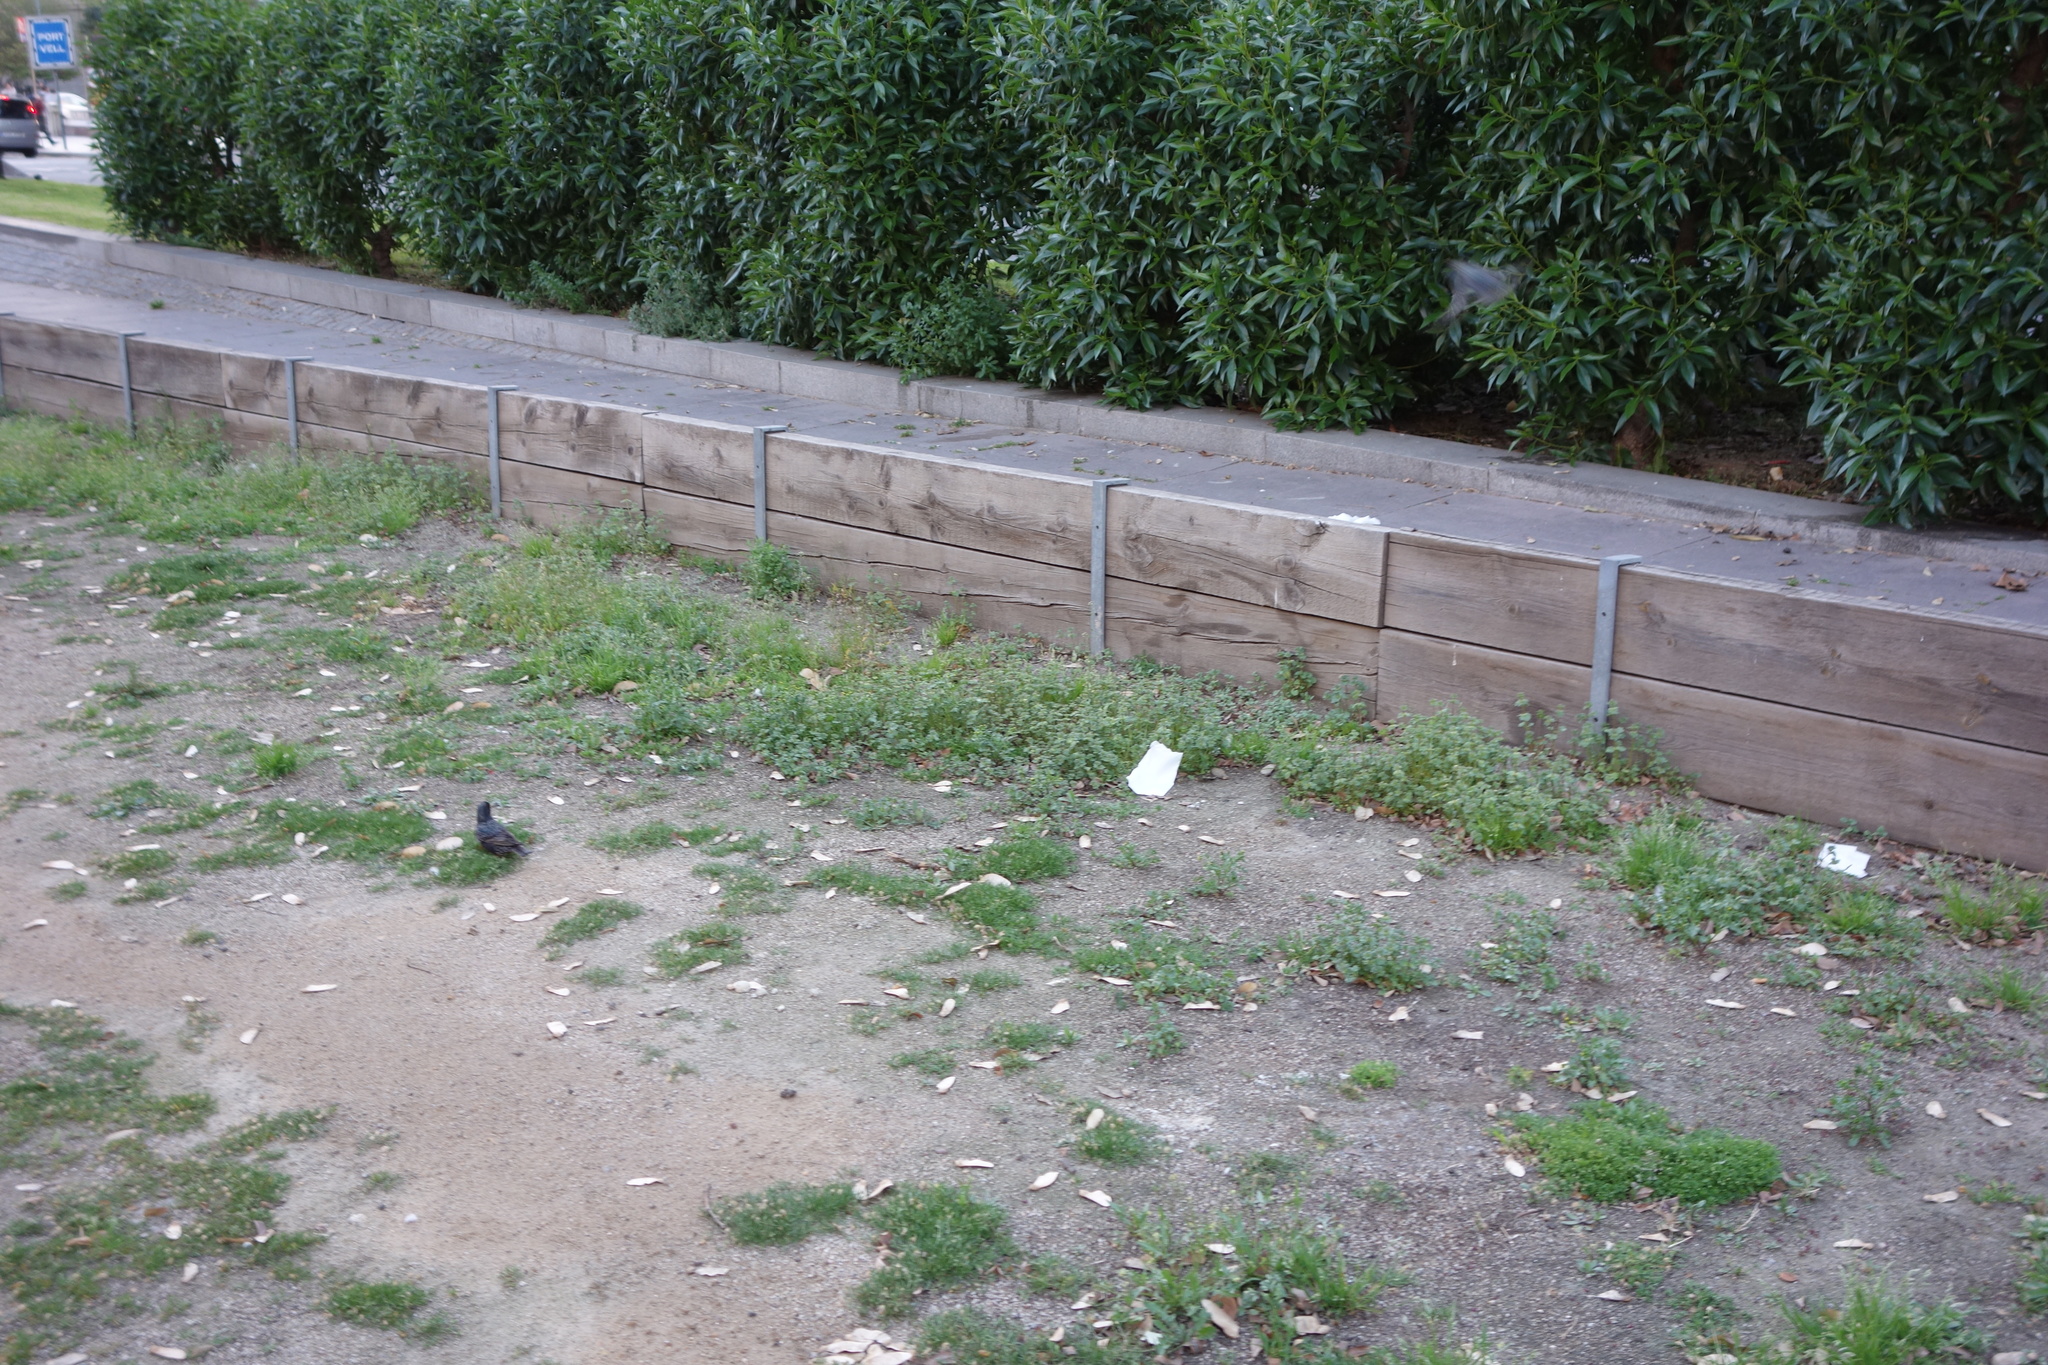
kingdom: Animalia
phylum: Chordata
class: Aves
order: Passeriformes
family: Sturnidae
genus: Sturnus
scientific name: Sturnus vulgaris
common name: Common starling
